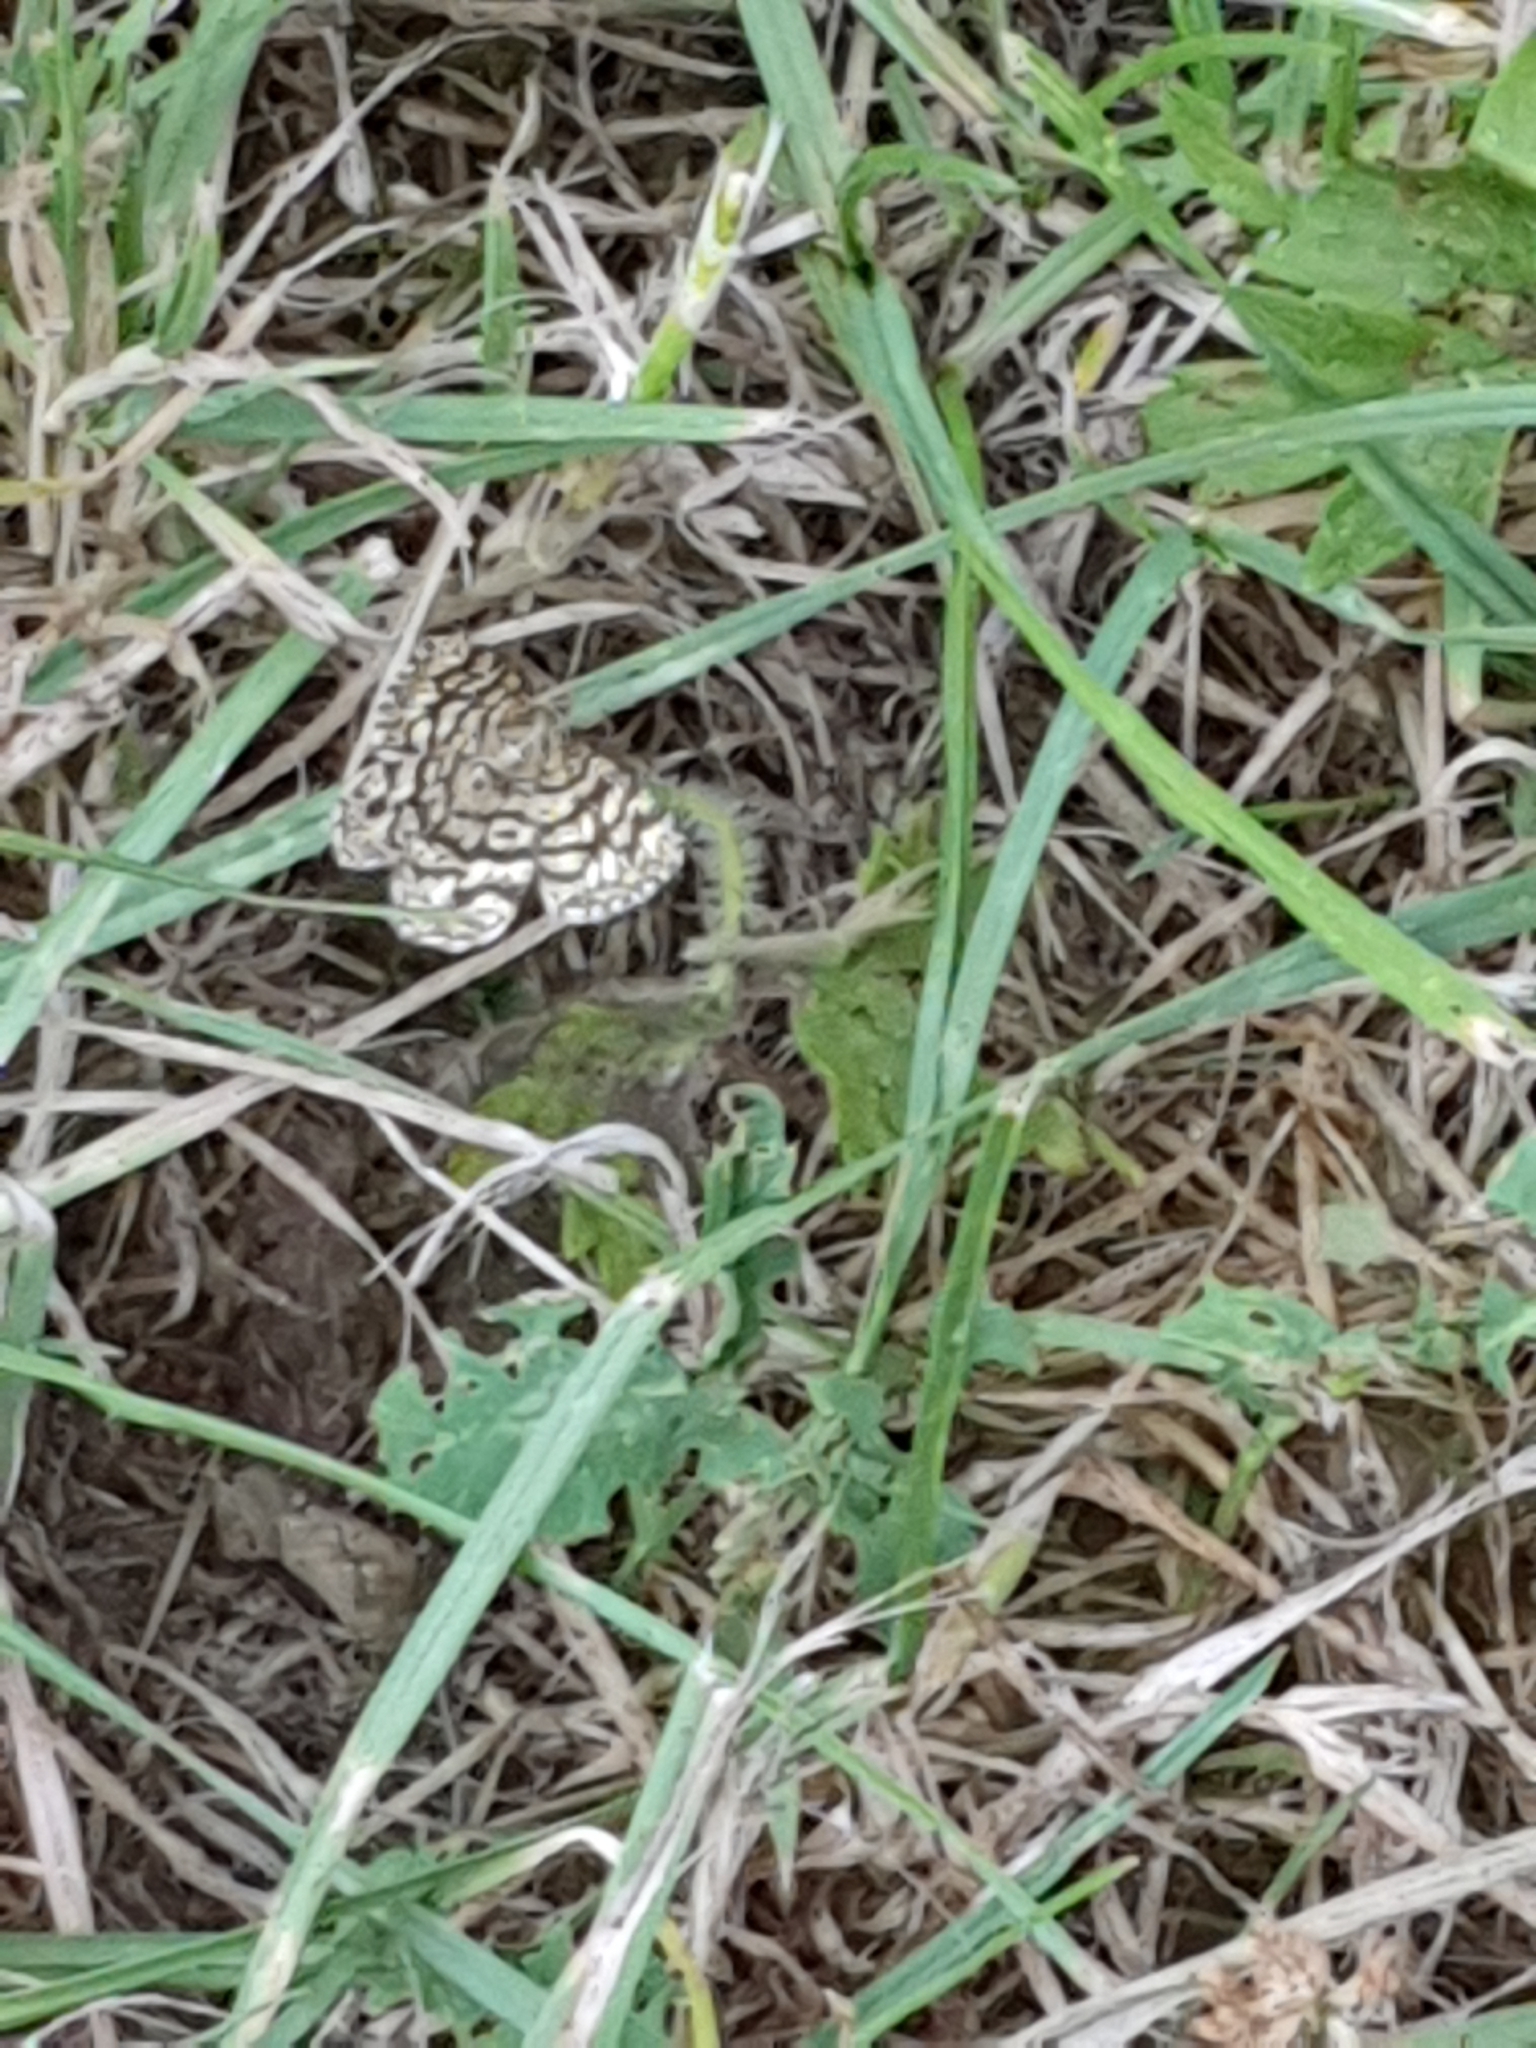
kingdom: Animalia
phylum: Arthropoda
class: Insecta
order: Lepidoptera
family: Geometridae
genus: Chiasmia
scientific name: Chiasmia clathrata
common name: Latticed heath
